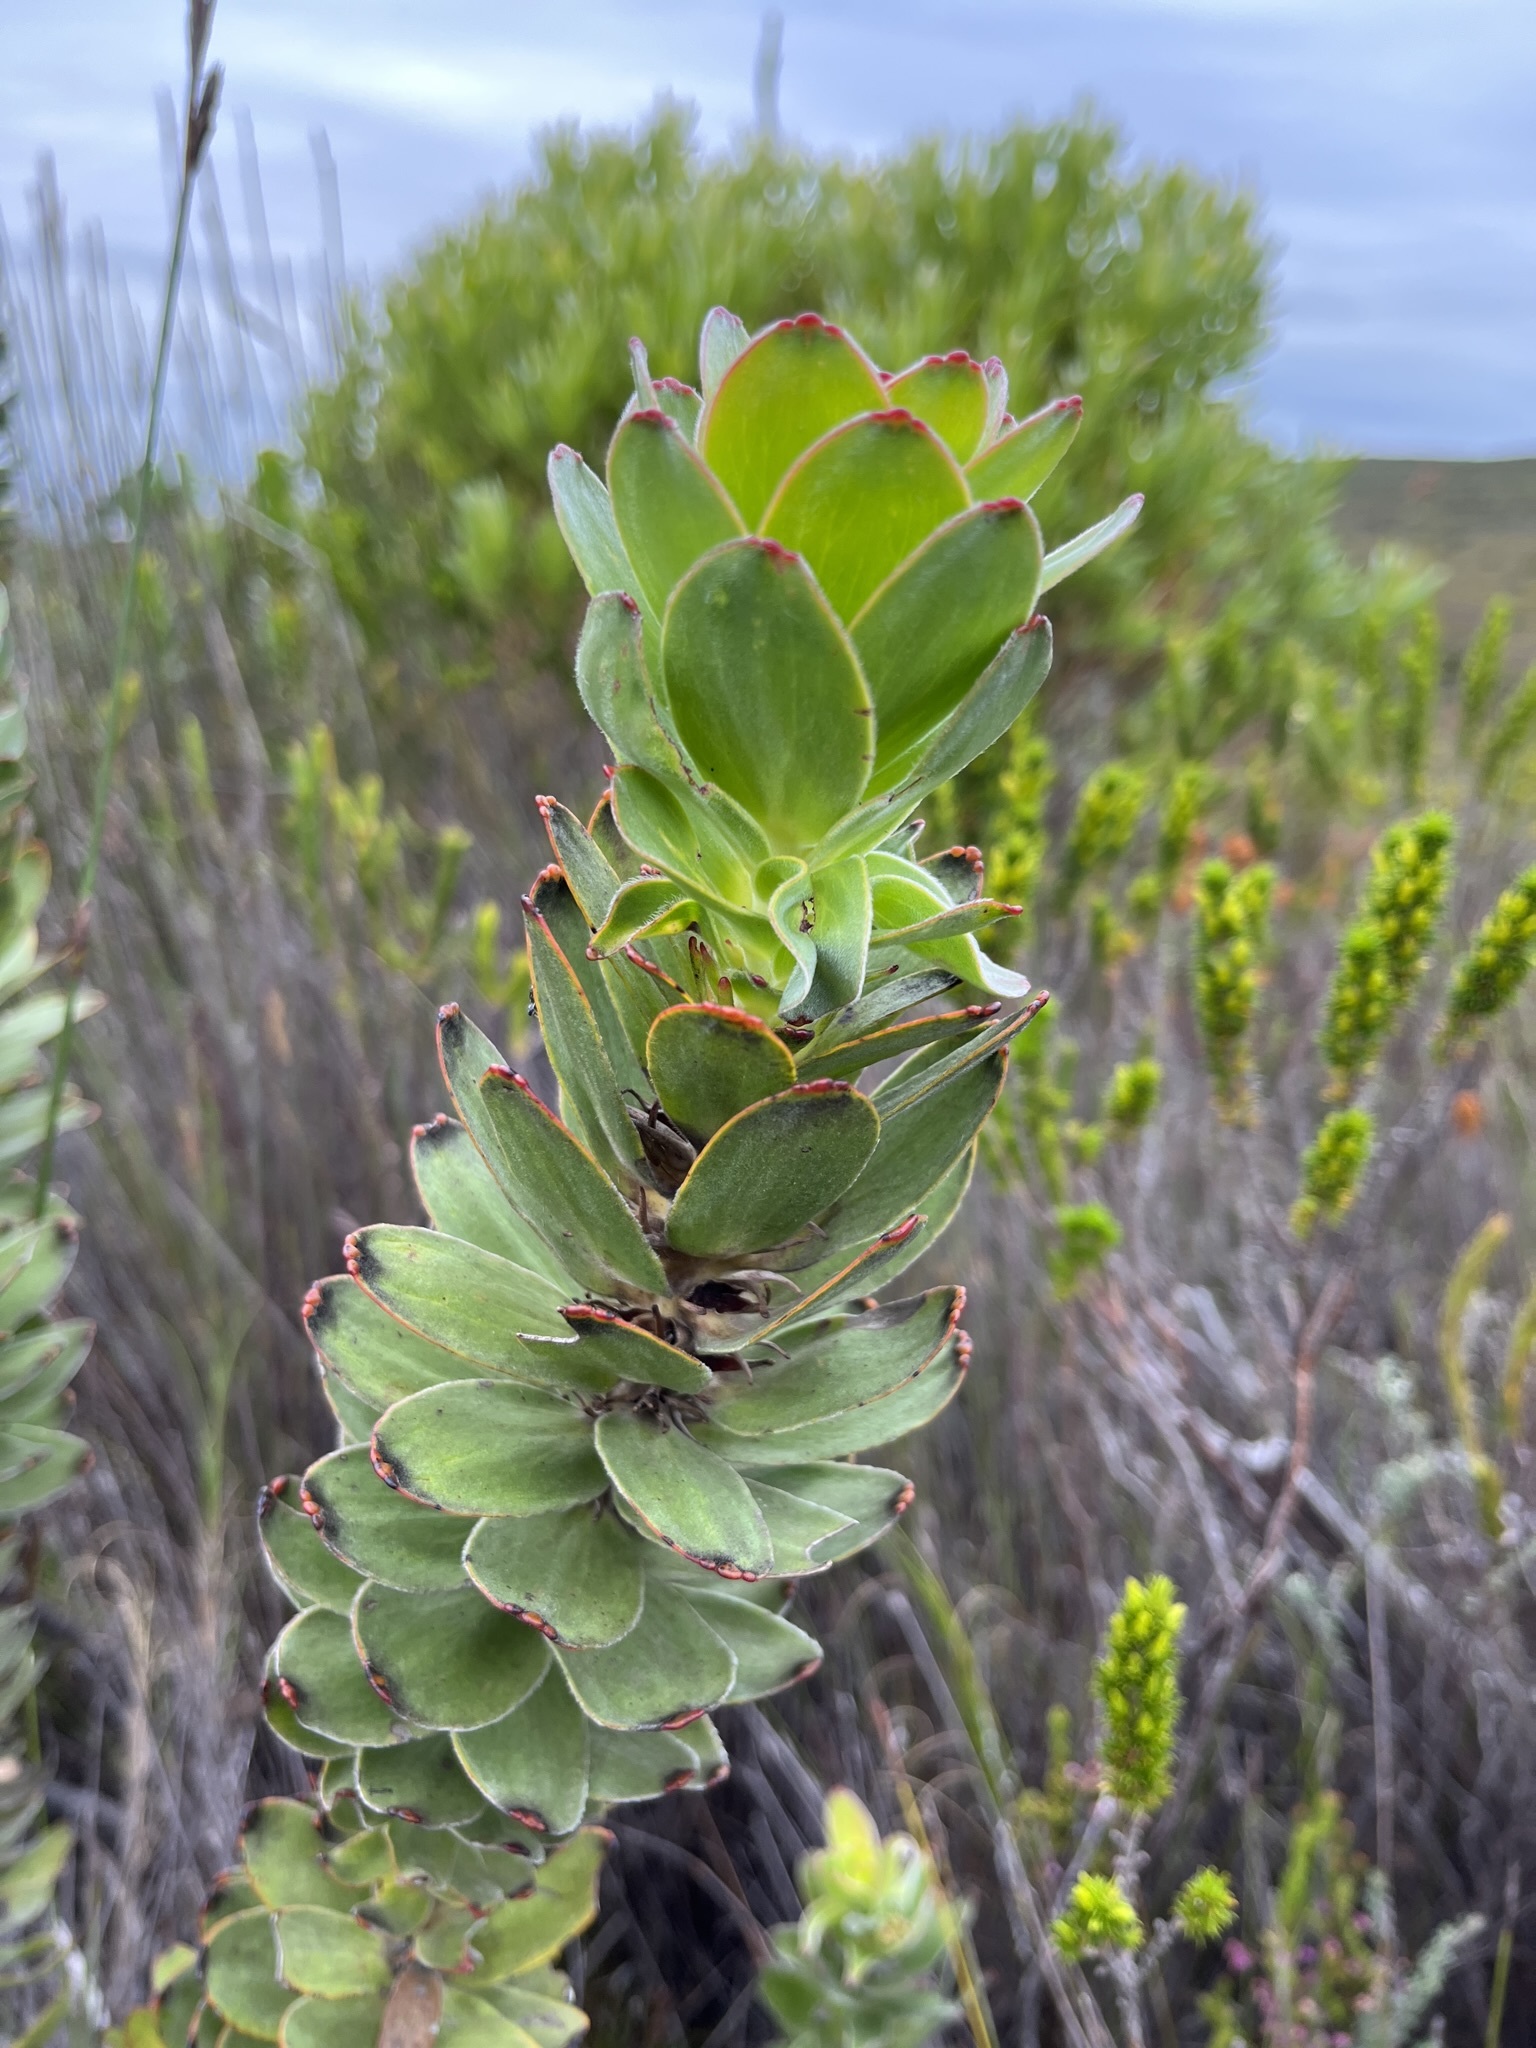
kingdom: Plantae
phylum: Tracheophyta
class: Magnoliopsida
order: Proteales
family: Proteaceae
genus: Mimetes
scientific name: Mimetes saxatilis
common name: Limestone pagoda
